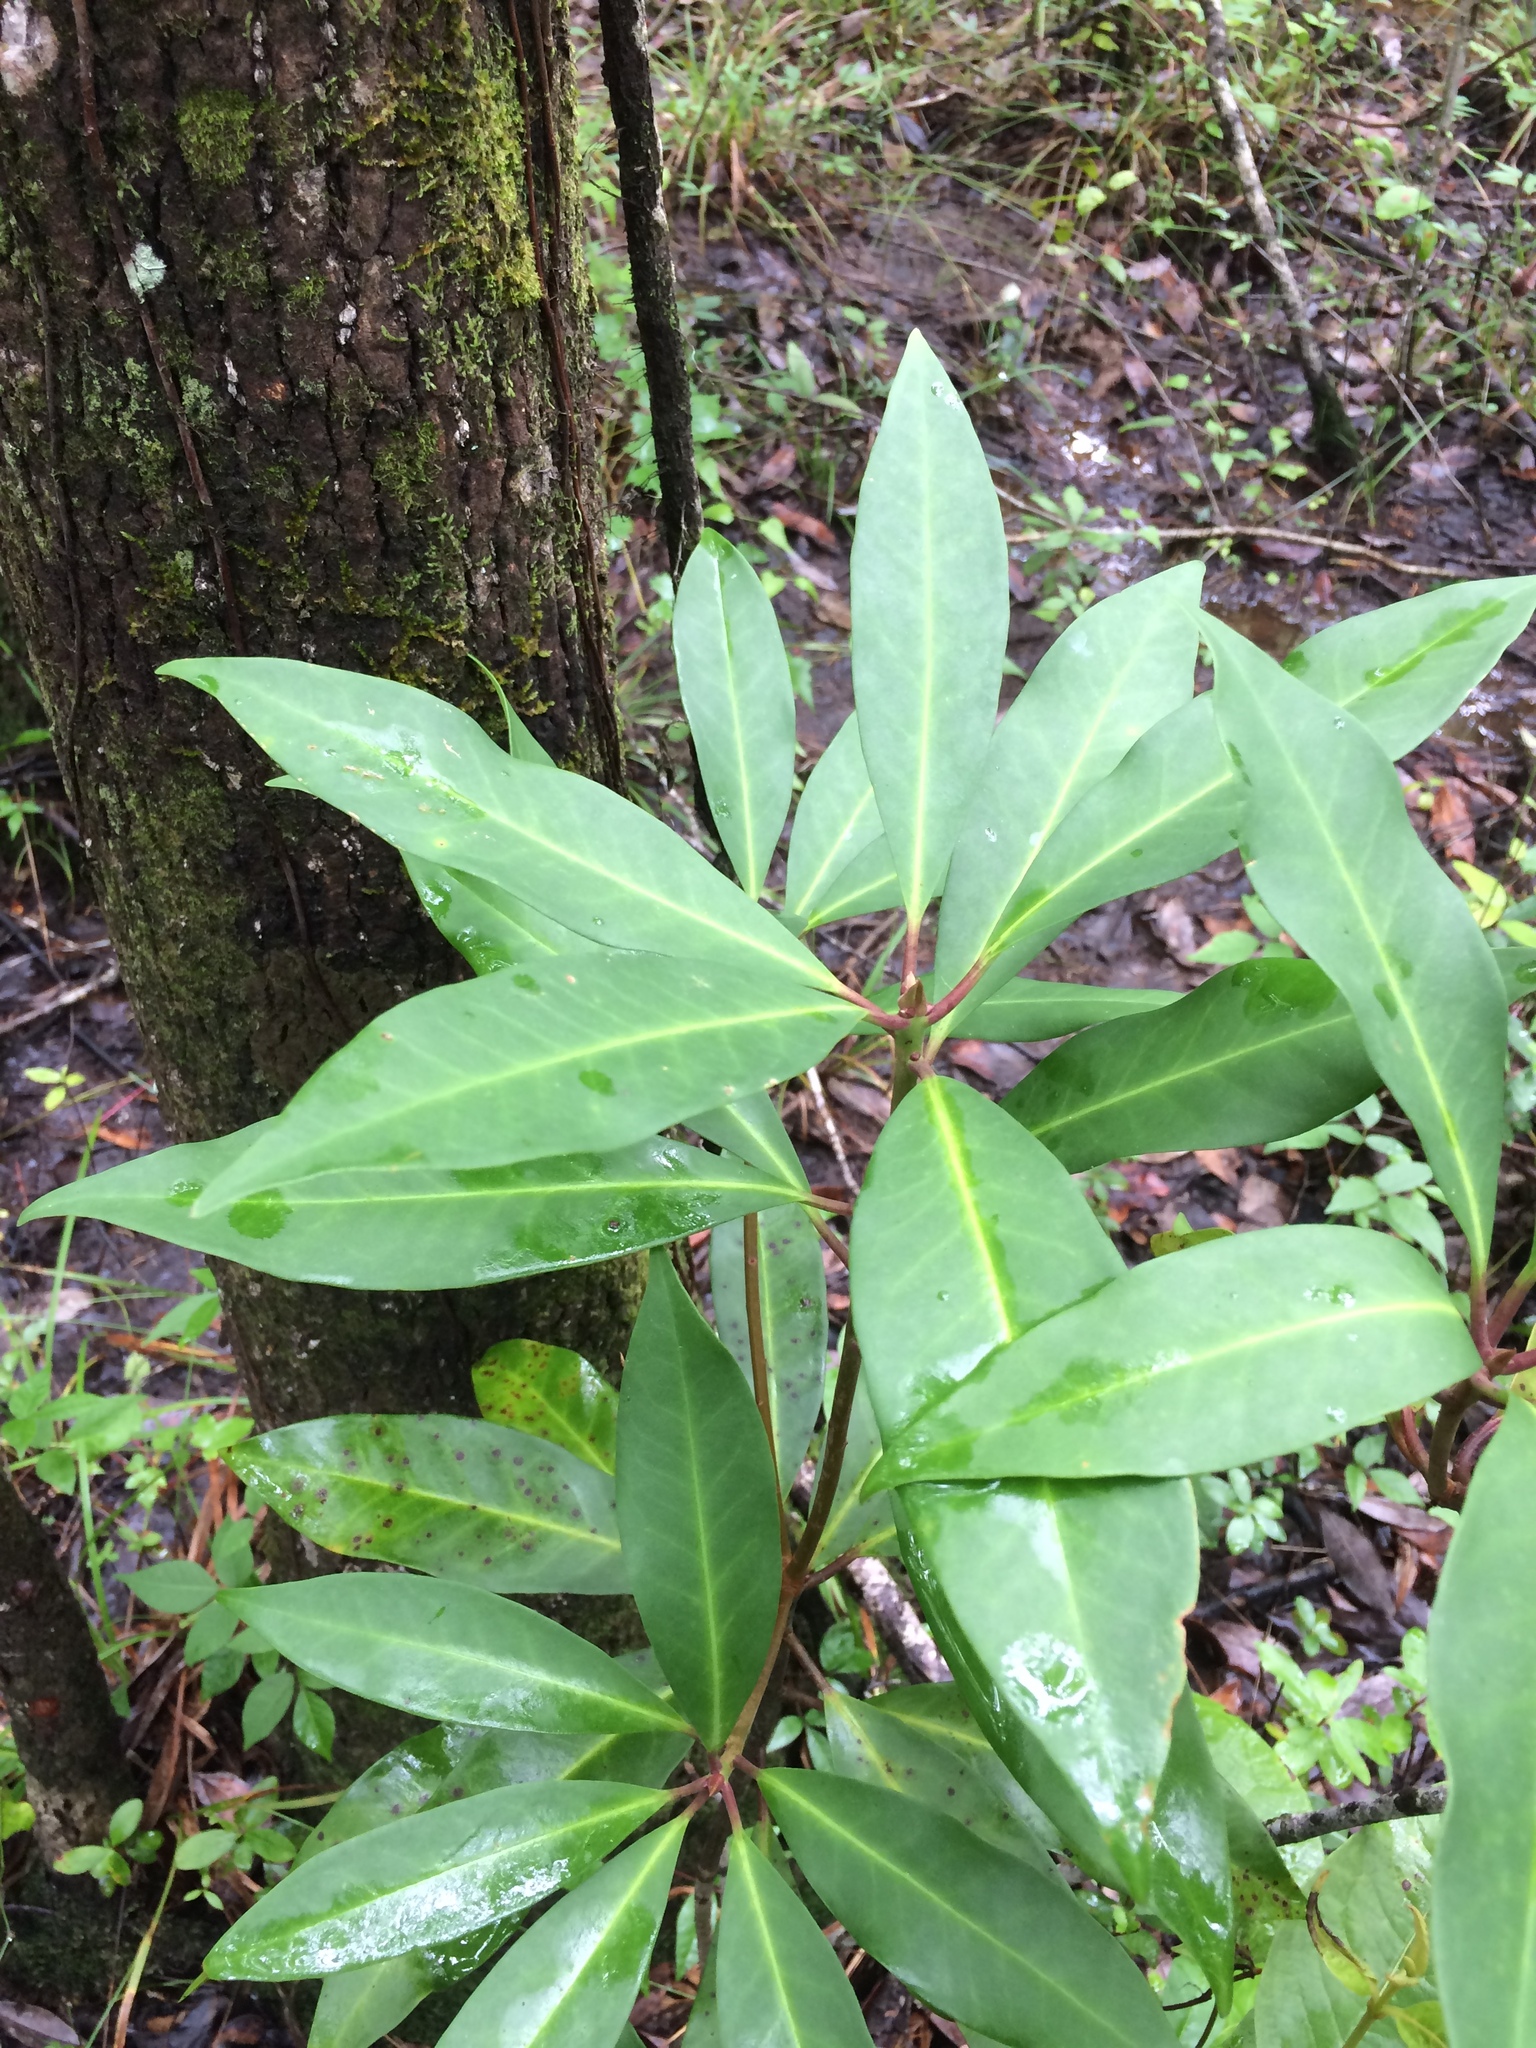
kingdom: Plantae
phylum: Tracheophyta
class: Magnoliopsida
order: Austrobaileyales
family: Schisandraceae
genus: Illicium
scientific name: Illicium floridanum
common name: Florida anisetree
